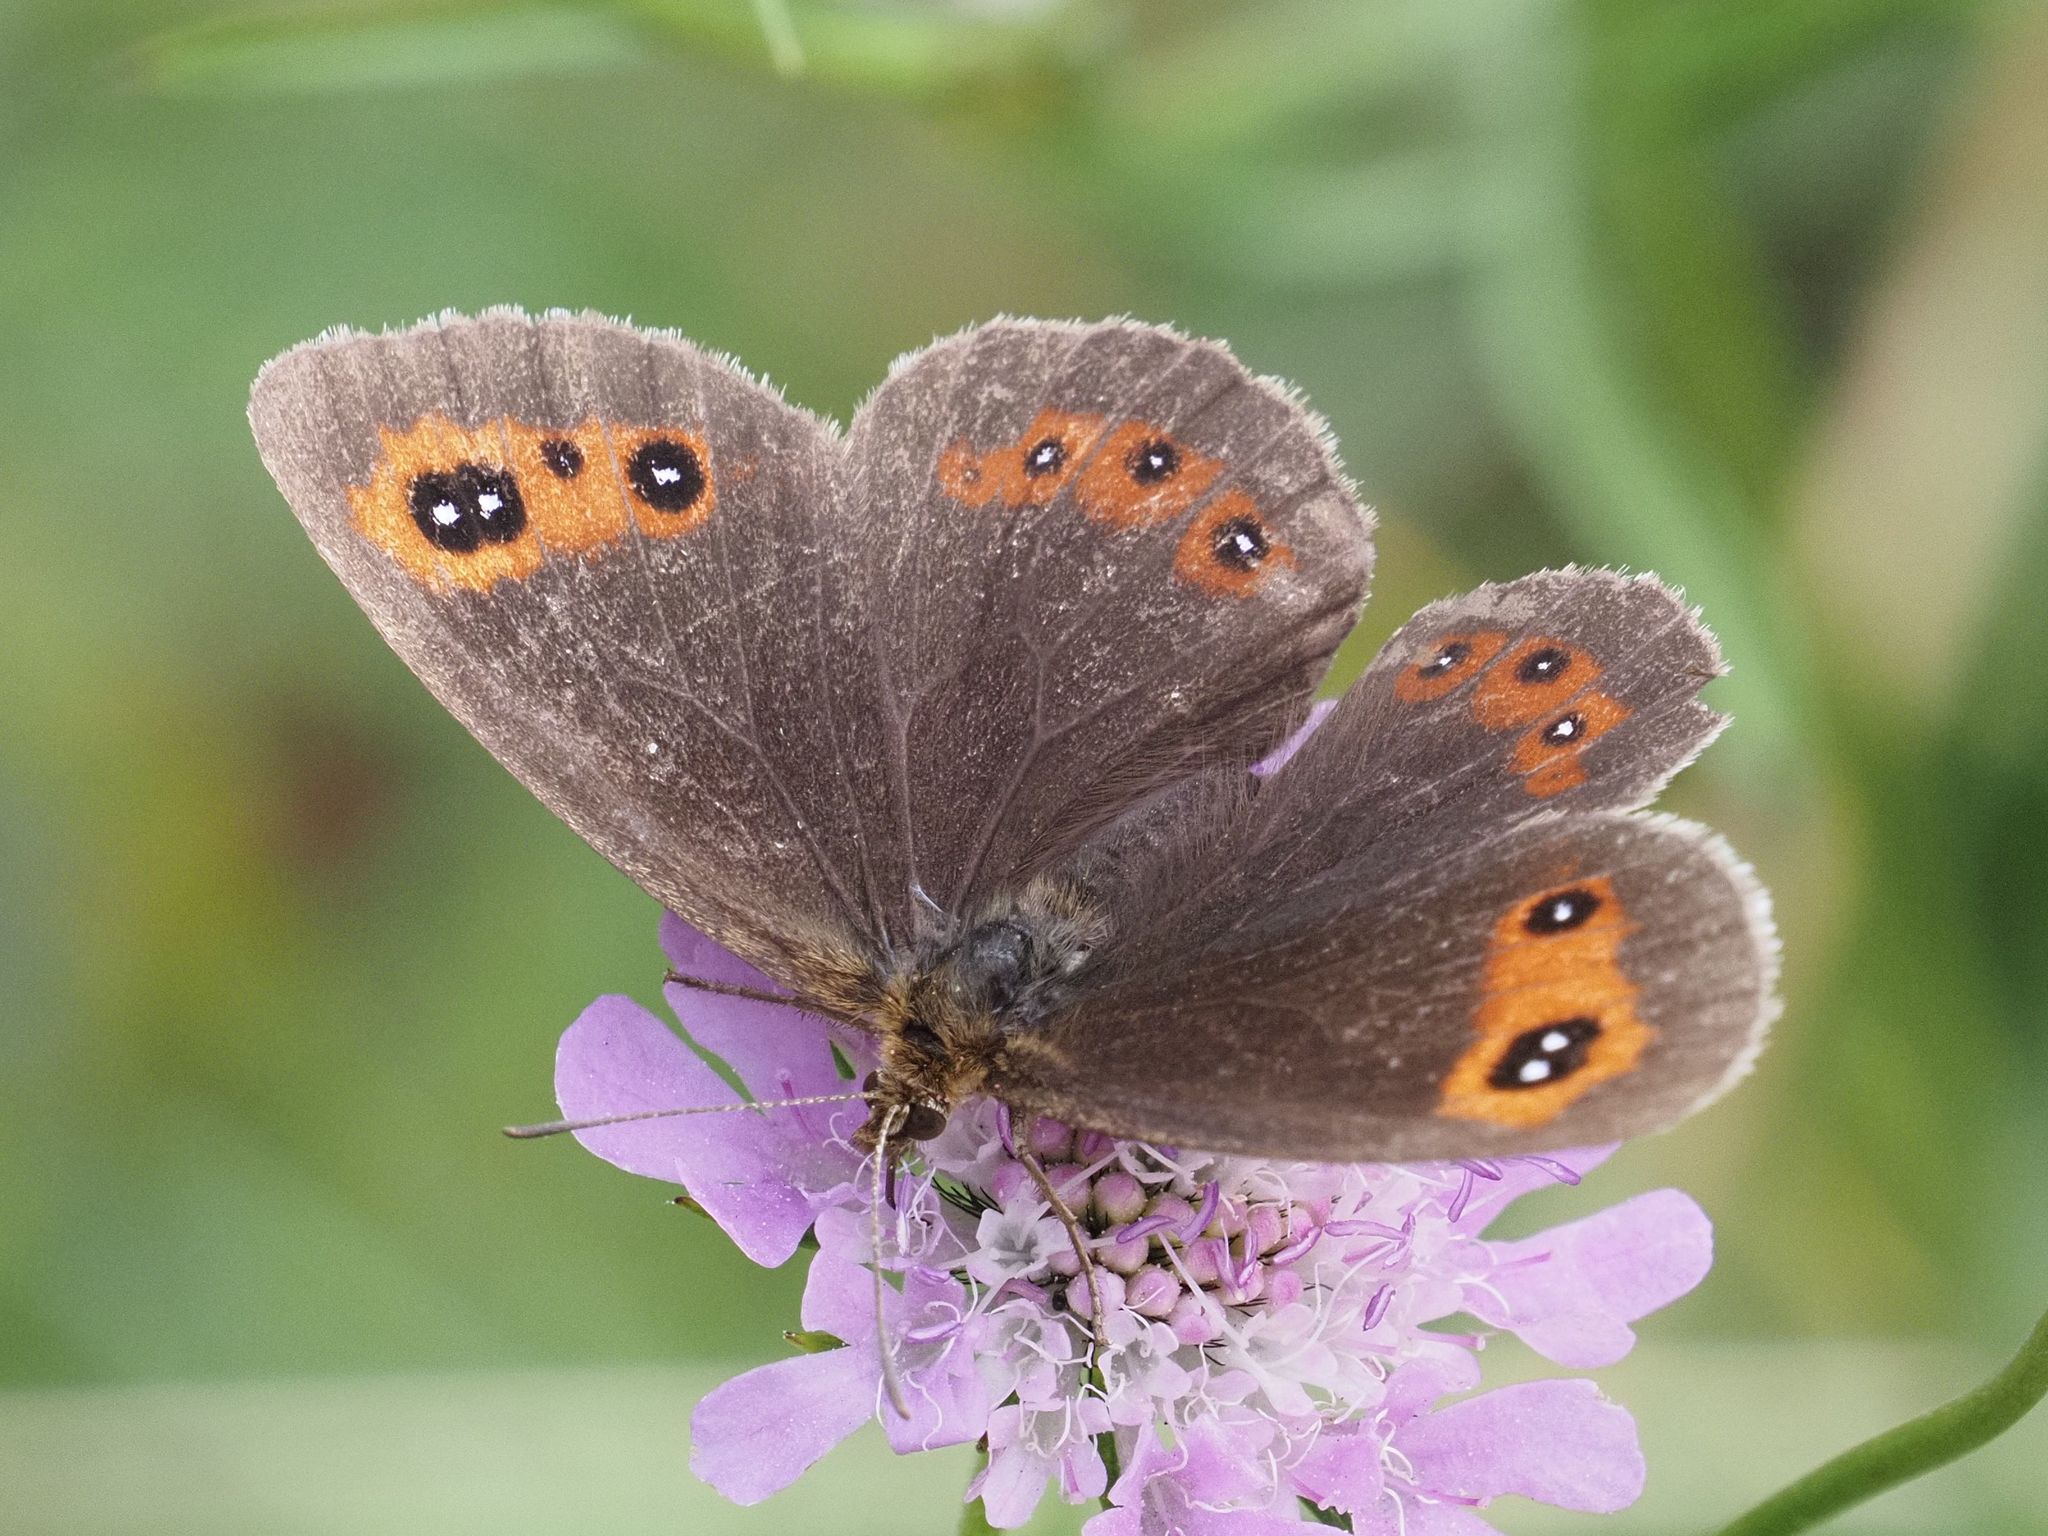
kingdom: Animalia
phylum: Arthropoda
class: Insecta
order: Lepidoptera
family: Nymphalidae
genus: Erebia
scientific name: Erebia aethiops
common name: Scotch argus
